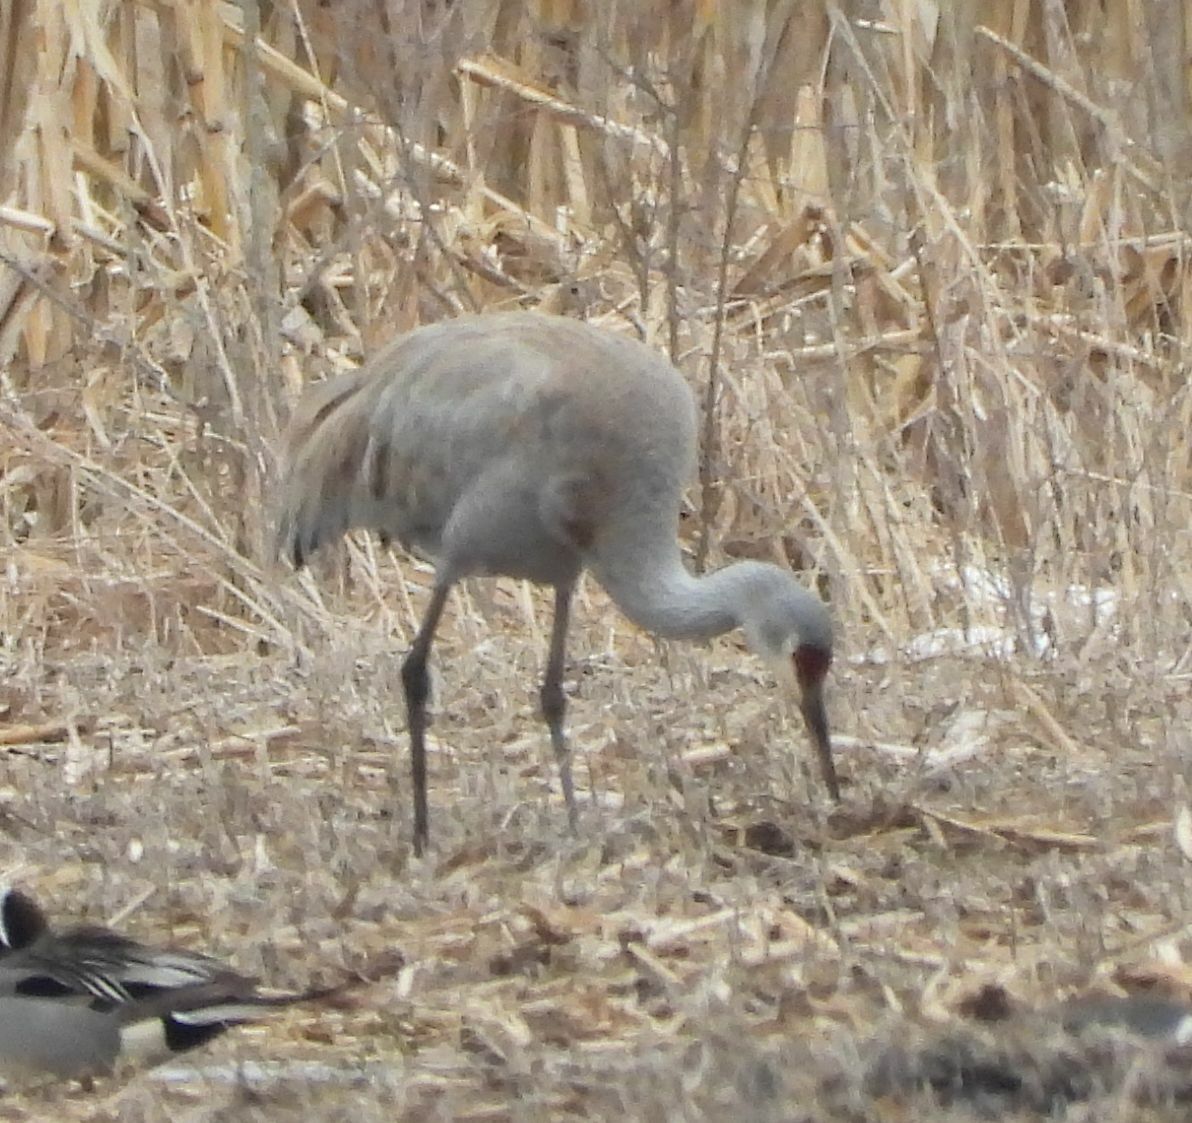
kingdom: Animalia
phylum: Chordata
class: Aves
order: Gruiformes
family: Gruidae
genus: Grus
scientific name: Grus canadensis
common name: Sandhill crane
